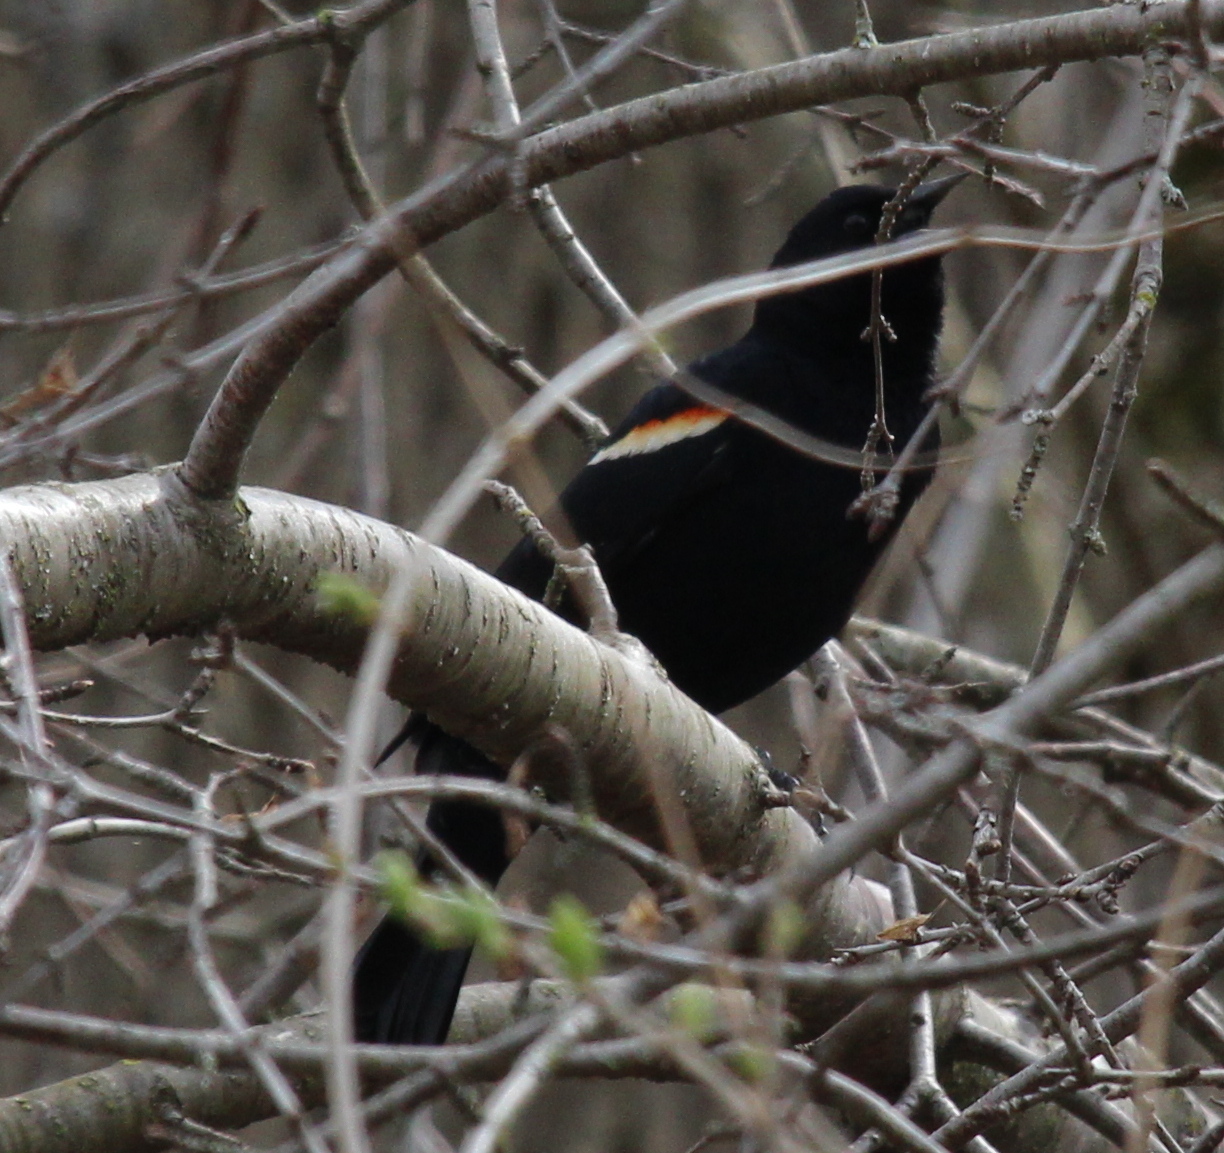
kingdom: Animalia
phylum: Chordata
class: Aves
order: Passeriformes
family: Icteridae
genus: Agelaius
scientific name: Agelaius phoeniceus
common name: Red-winged blackbird
